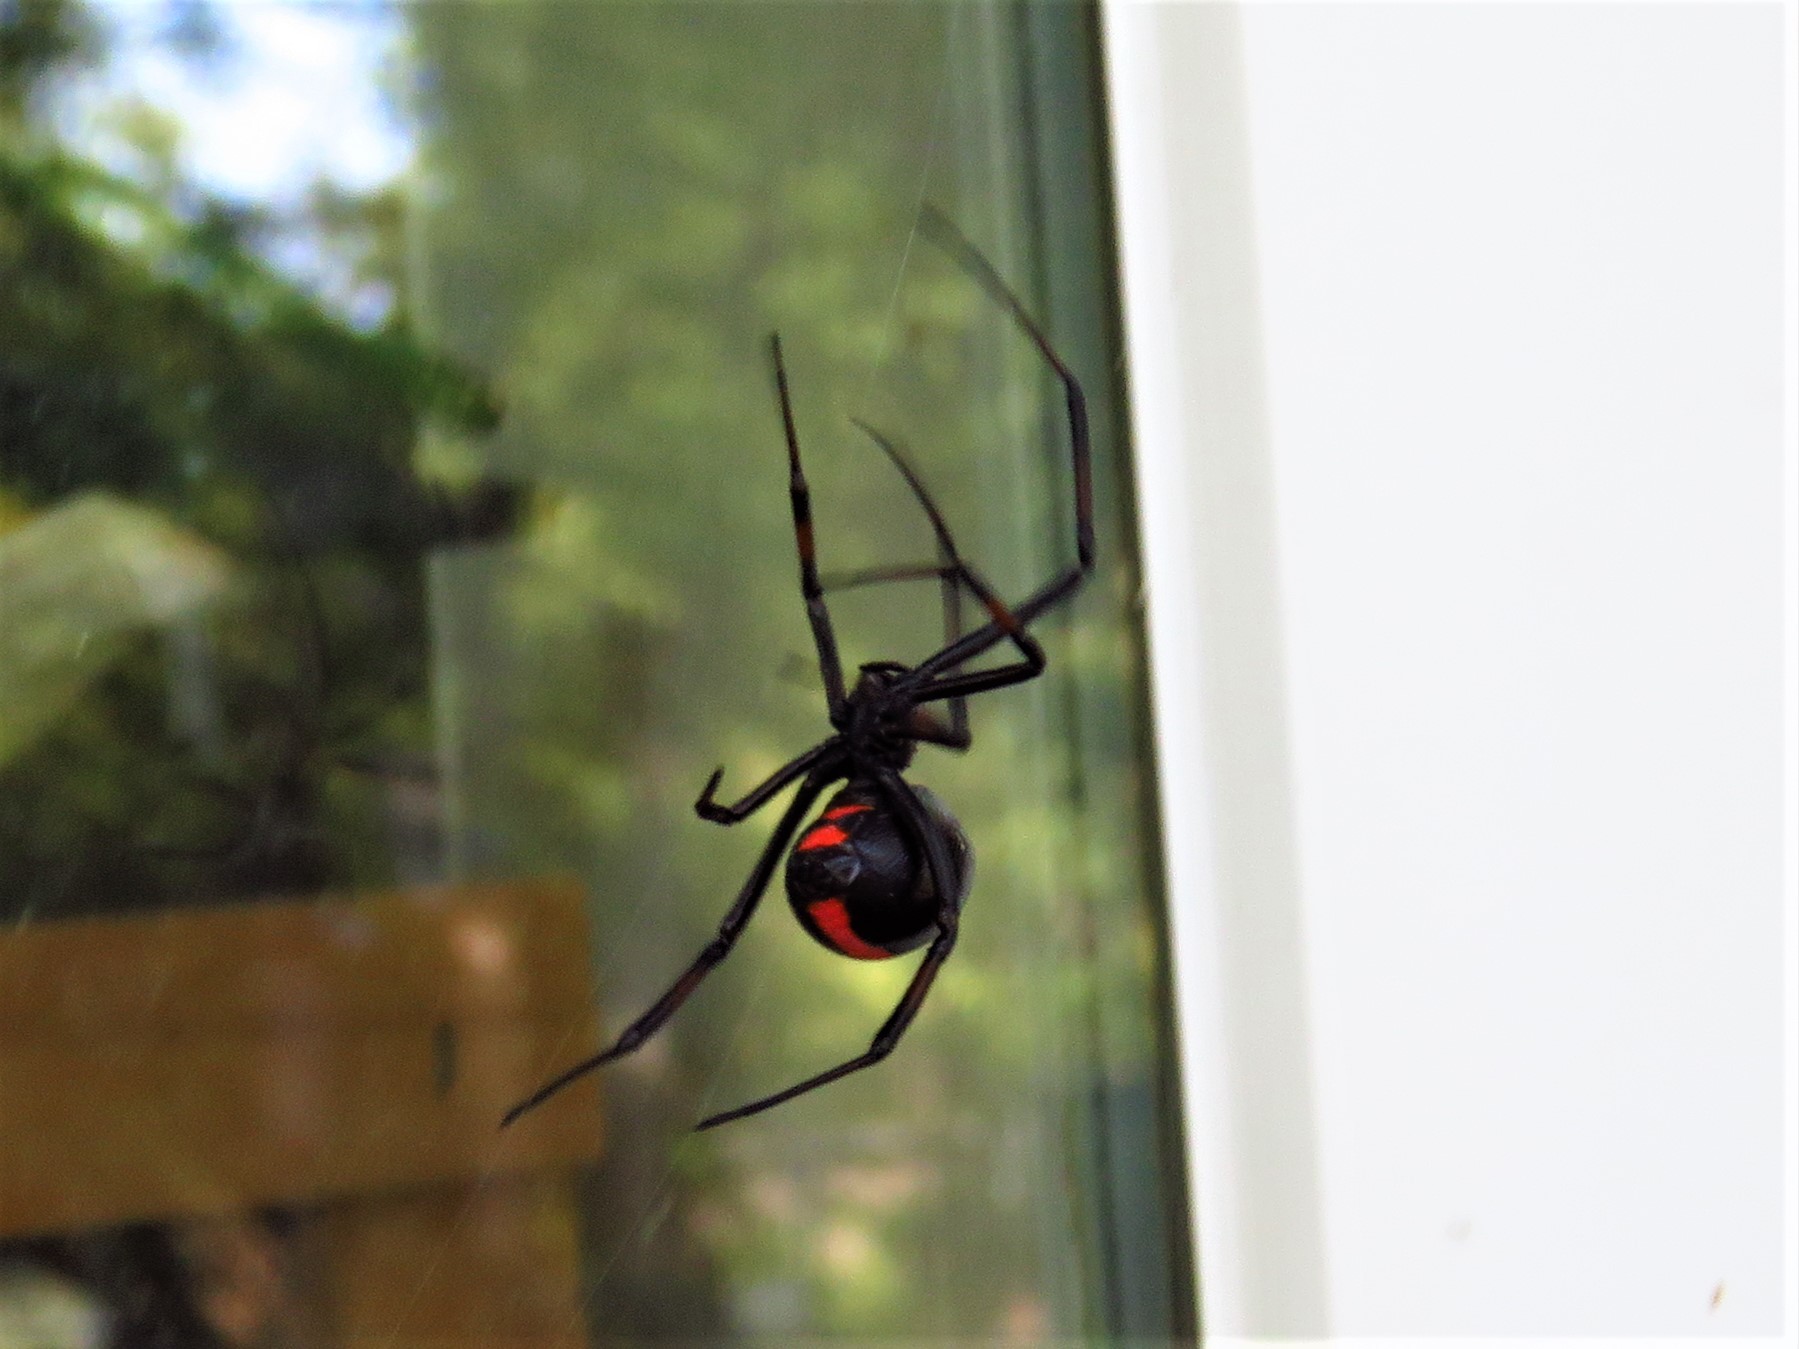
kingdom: Animalia
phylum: Arthropoda
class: Arachnida
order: Araneae
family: Theridiidae
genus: Latrodectus
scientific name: Latrodectus variolus
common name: Northern black widow
